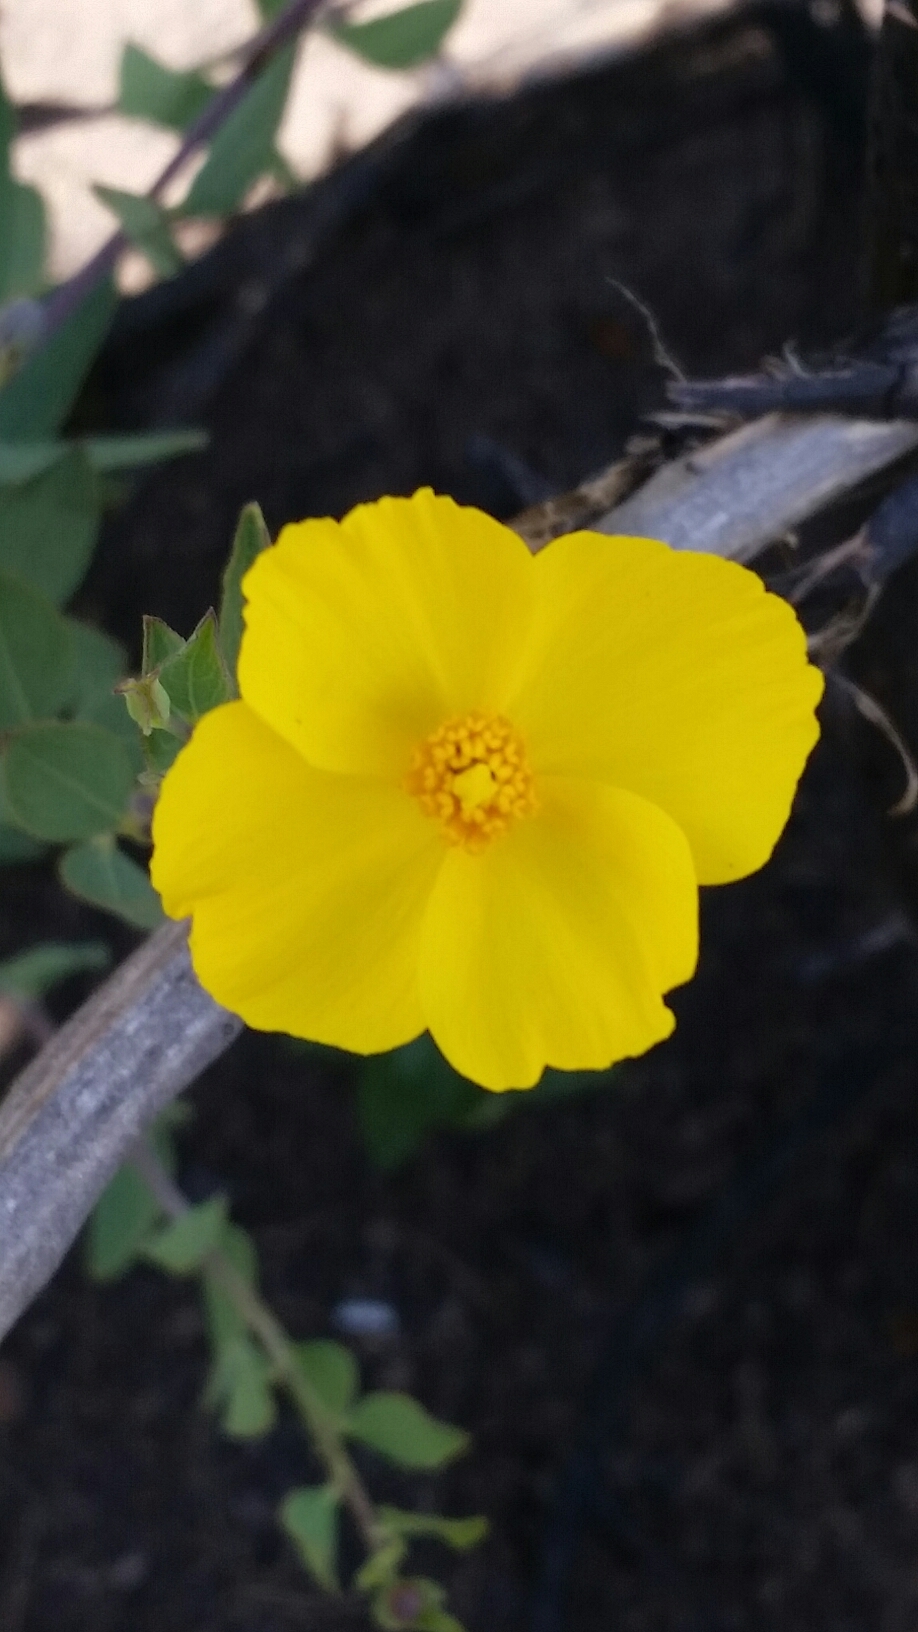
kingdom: Plantae
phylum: Tracheophyta
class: Magnoliopsida
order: Ranunculales
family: Papaveraceae
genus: Dendromecon
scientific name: Dendromecon rigida
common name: Tree poppy
